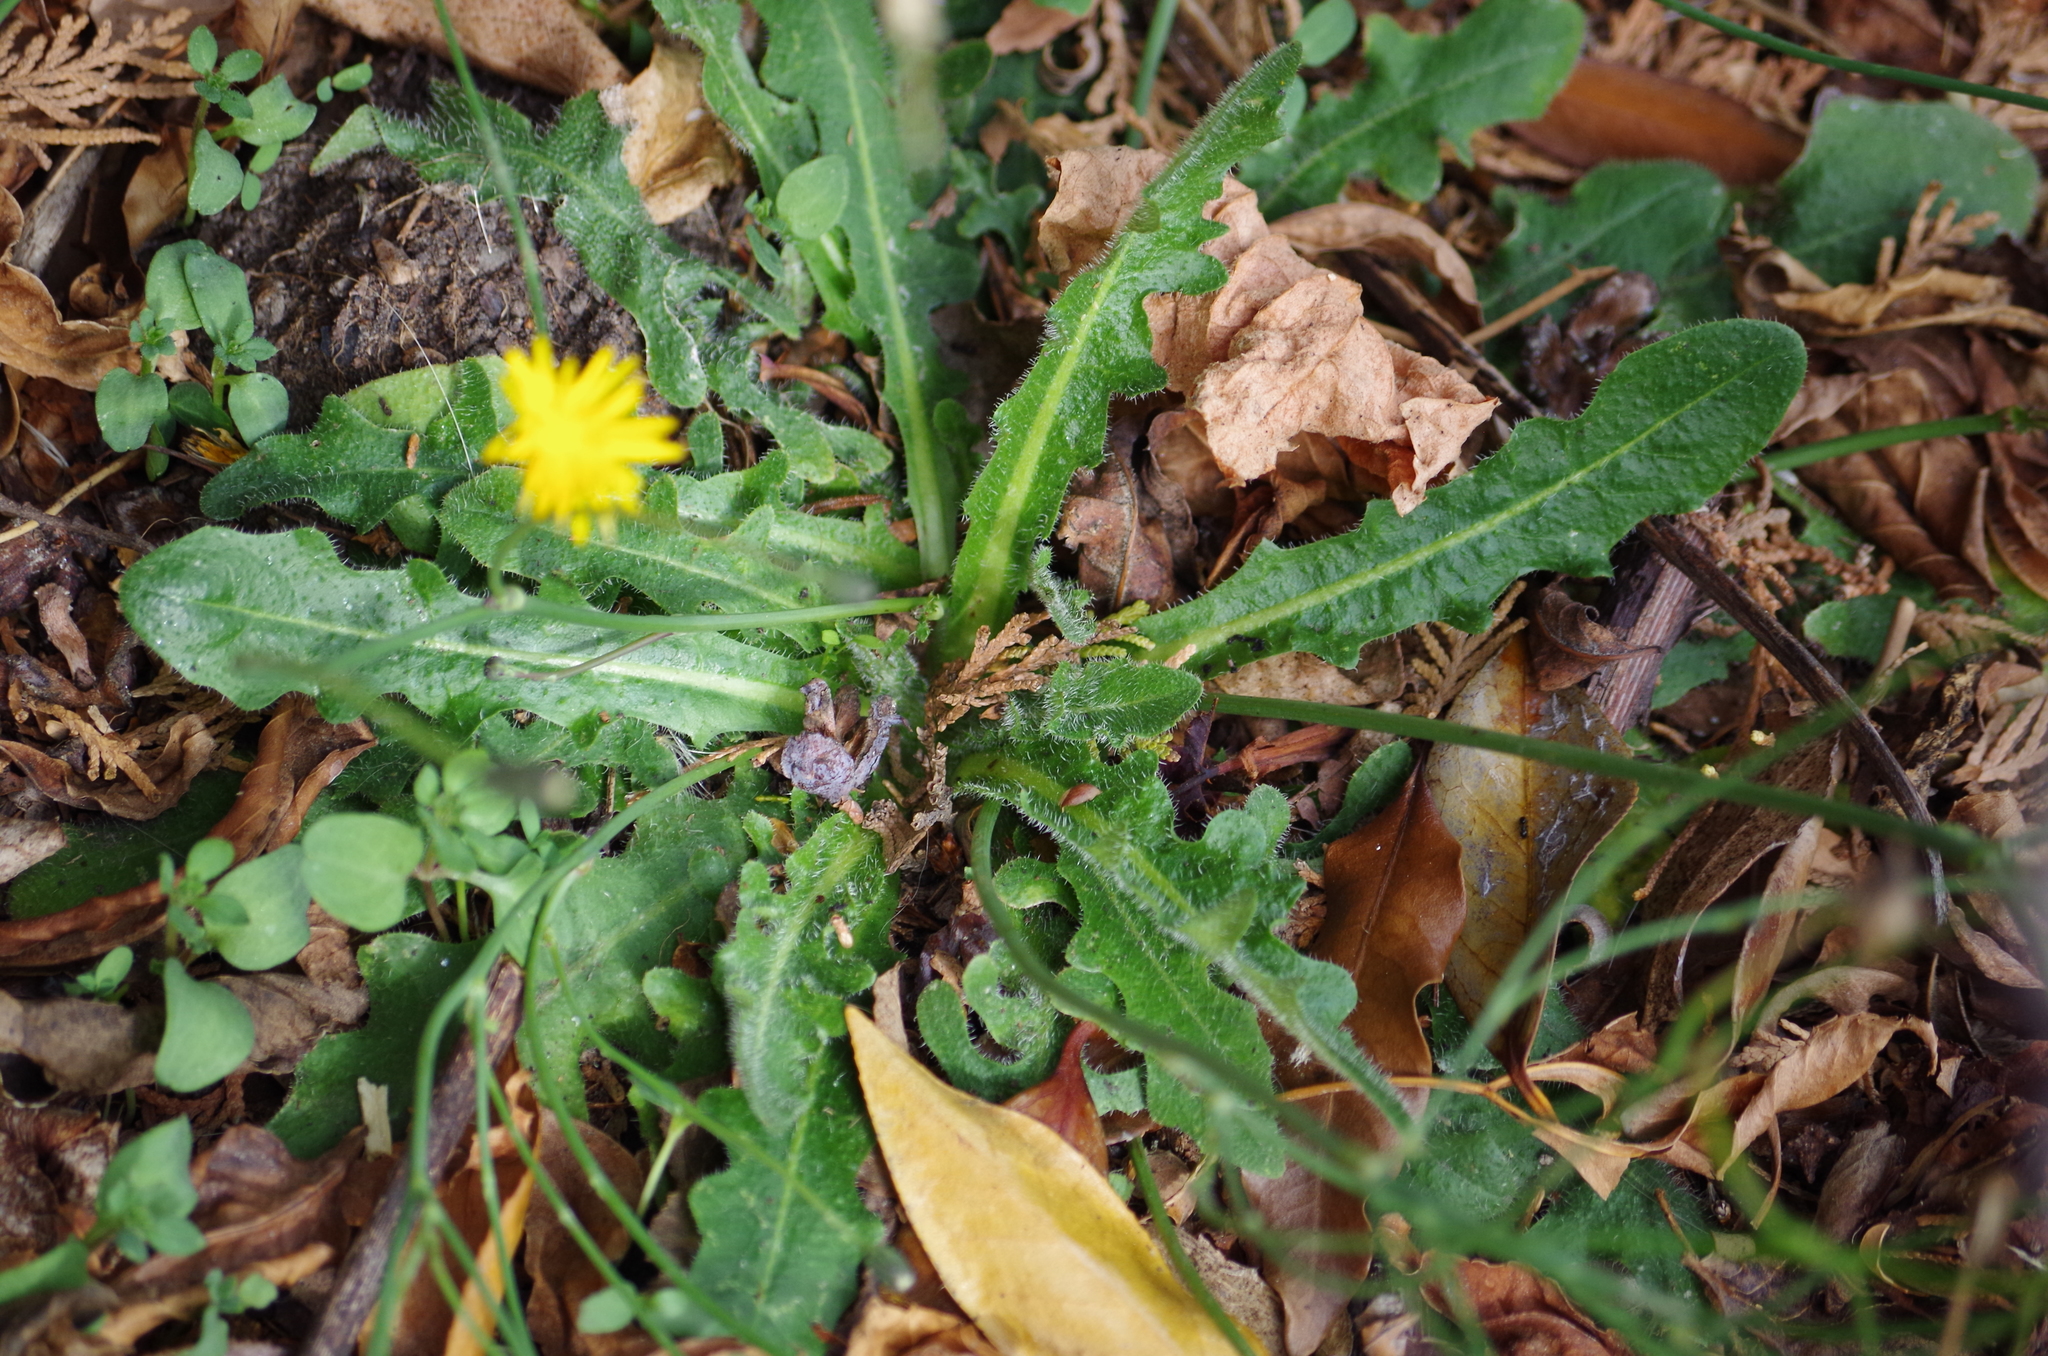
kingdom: Plantae
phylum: Tracheophyta
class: Magnoliopsida
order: Asterales
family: Asteraceae
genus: Hypochaeris
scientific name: Hypochaeris radicata
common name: Flatweed
